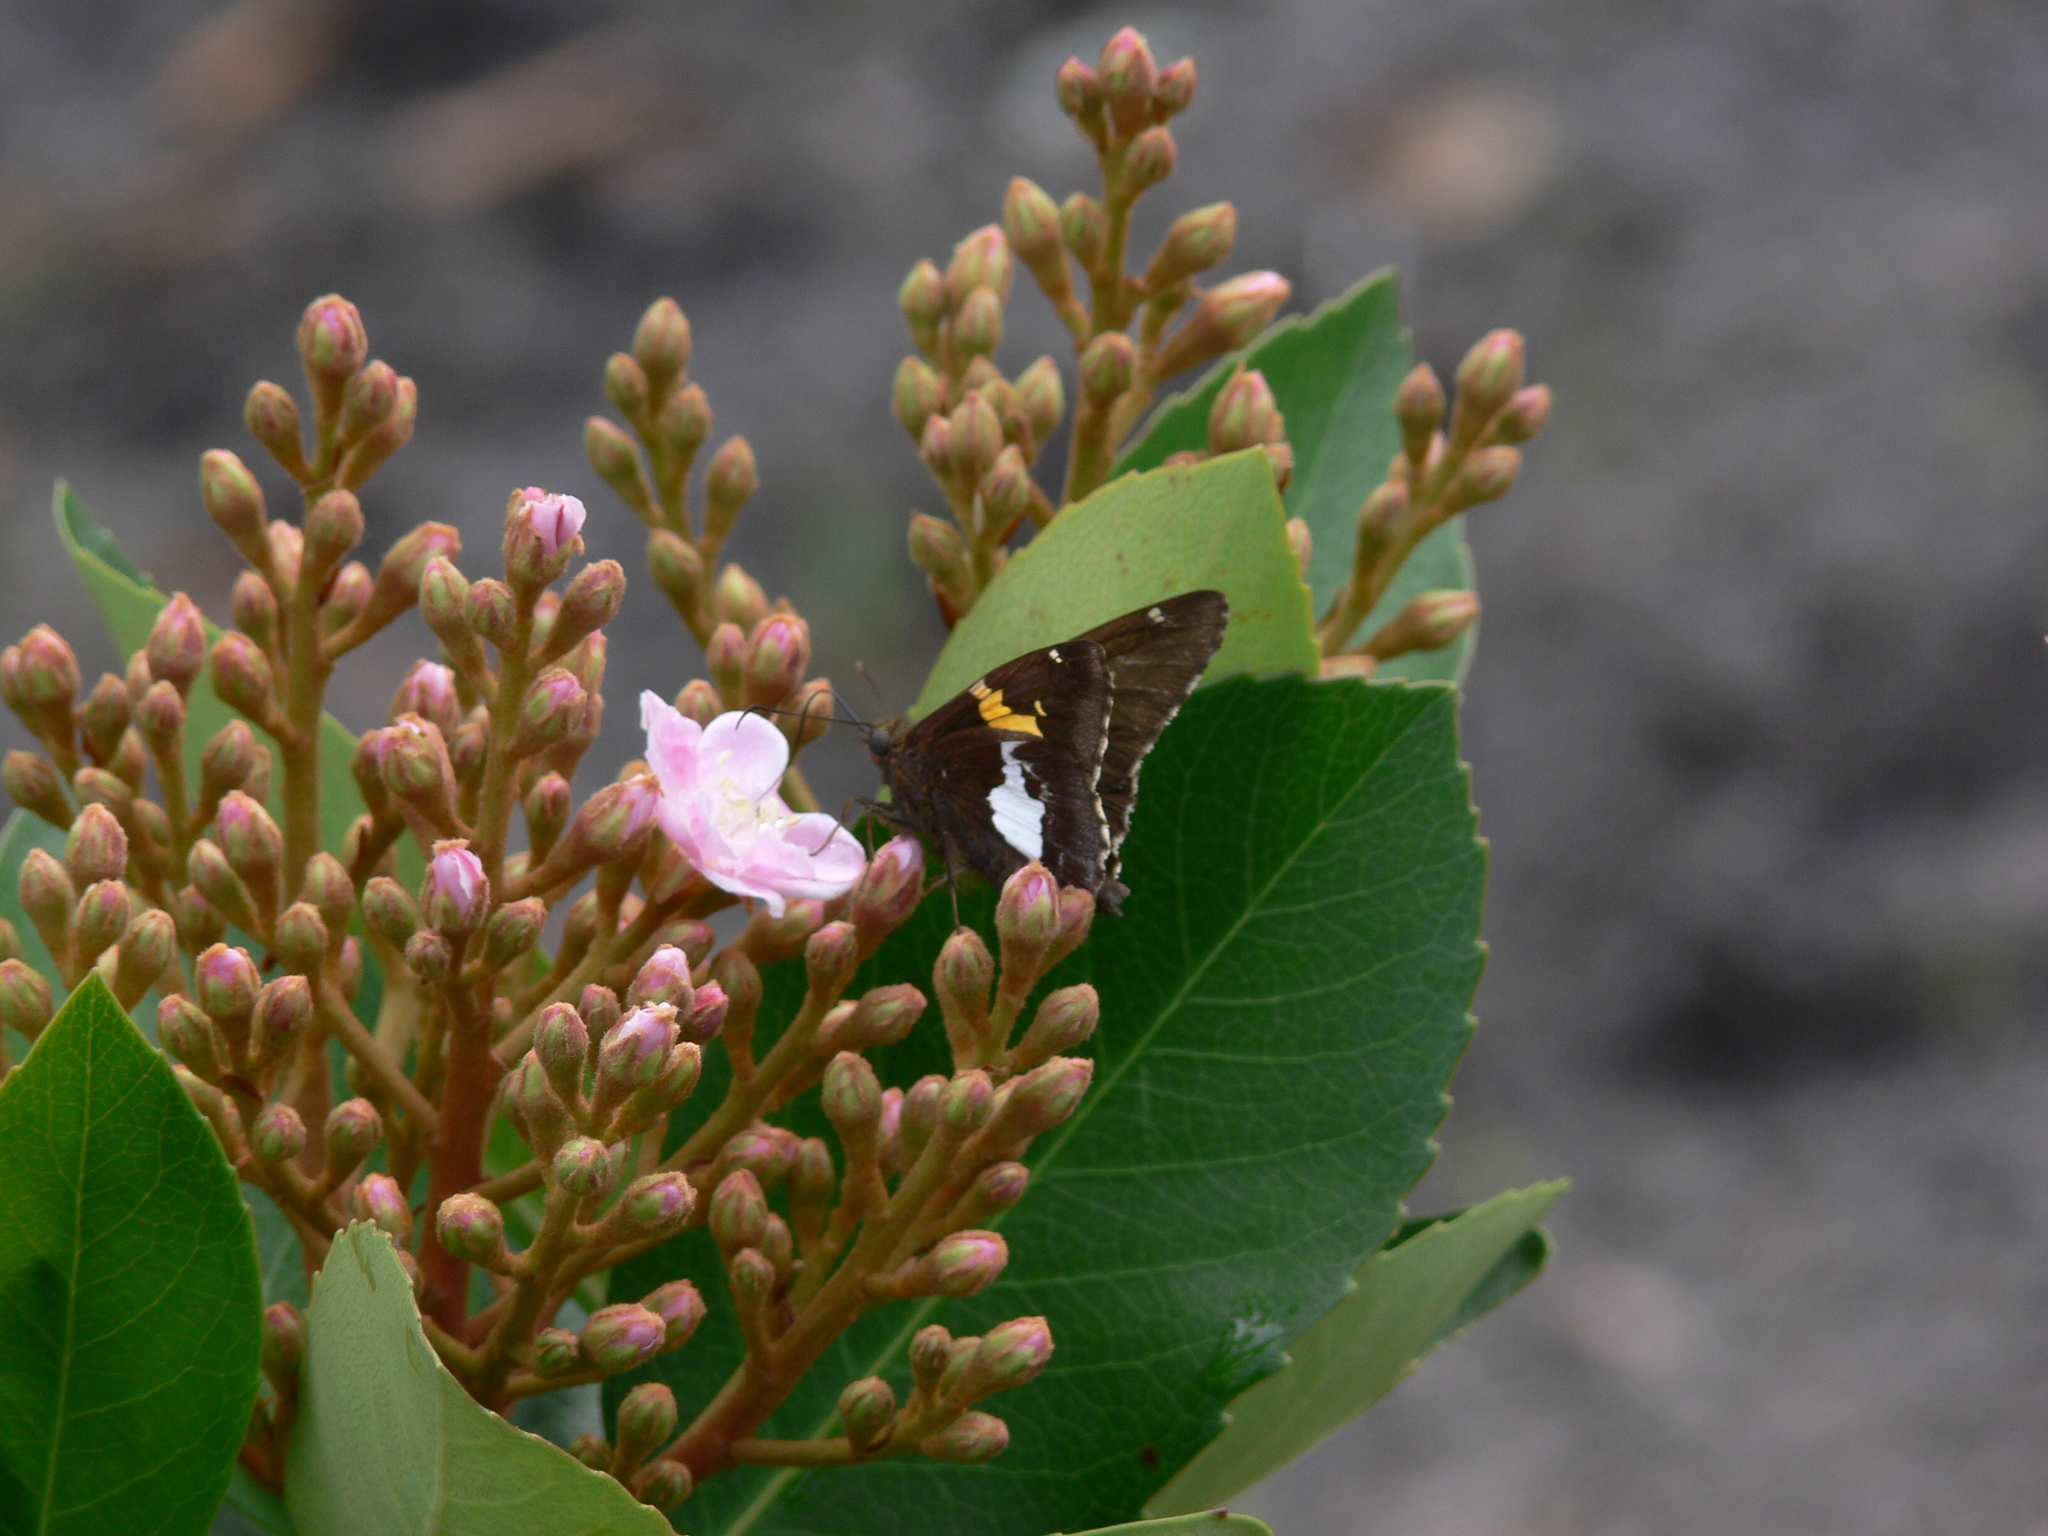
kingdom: Animalia
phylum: Arthropoda
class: Insecta
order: Lepidoptera
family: Hesperiidae
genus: Epargyreus
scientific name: Epargyreus clarus
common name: Silver-spotted skipper
